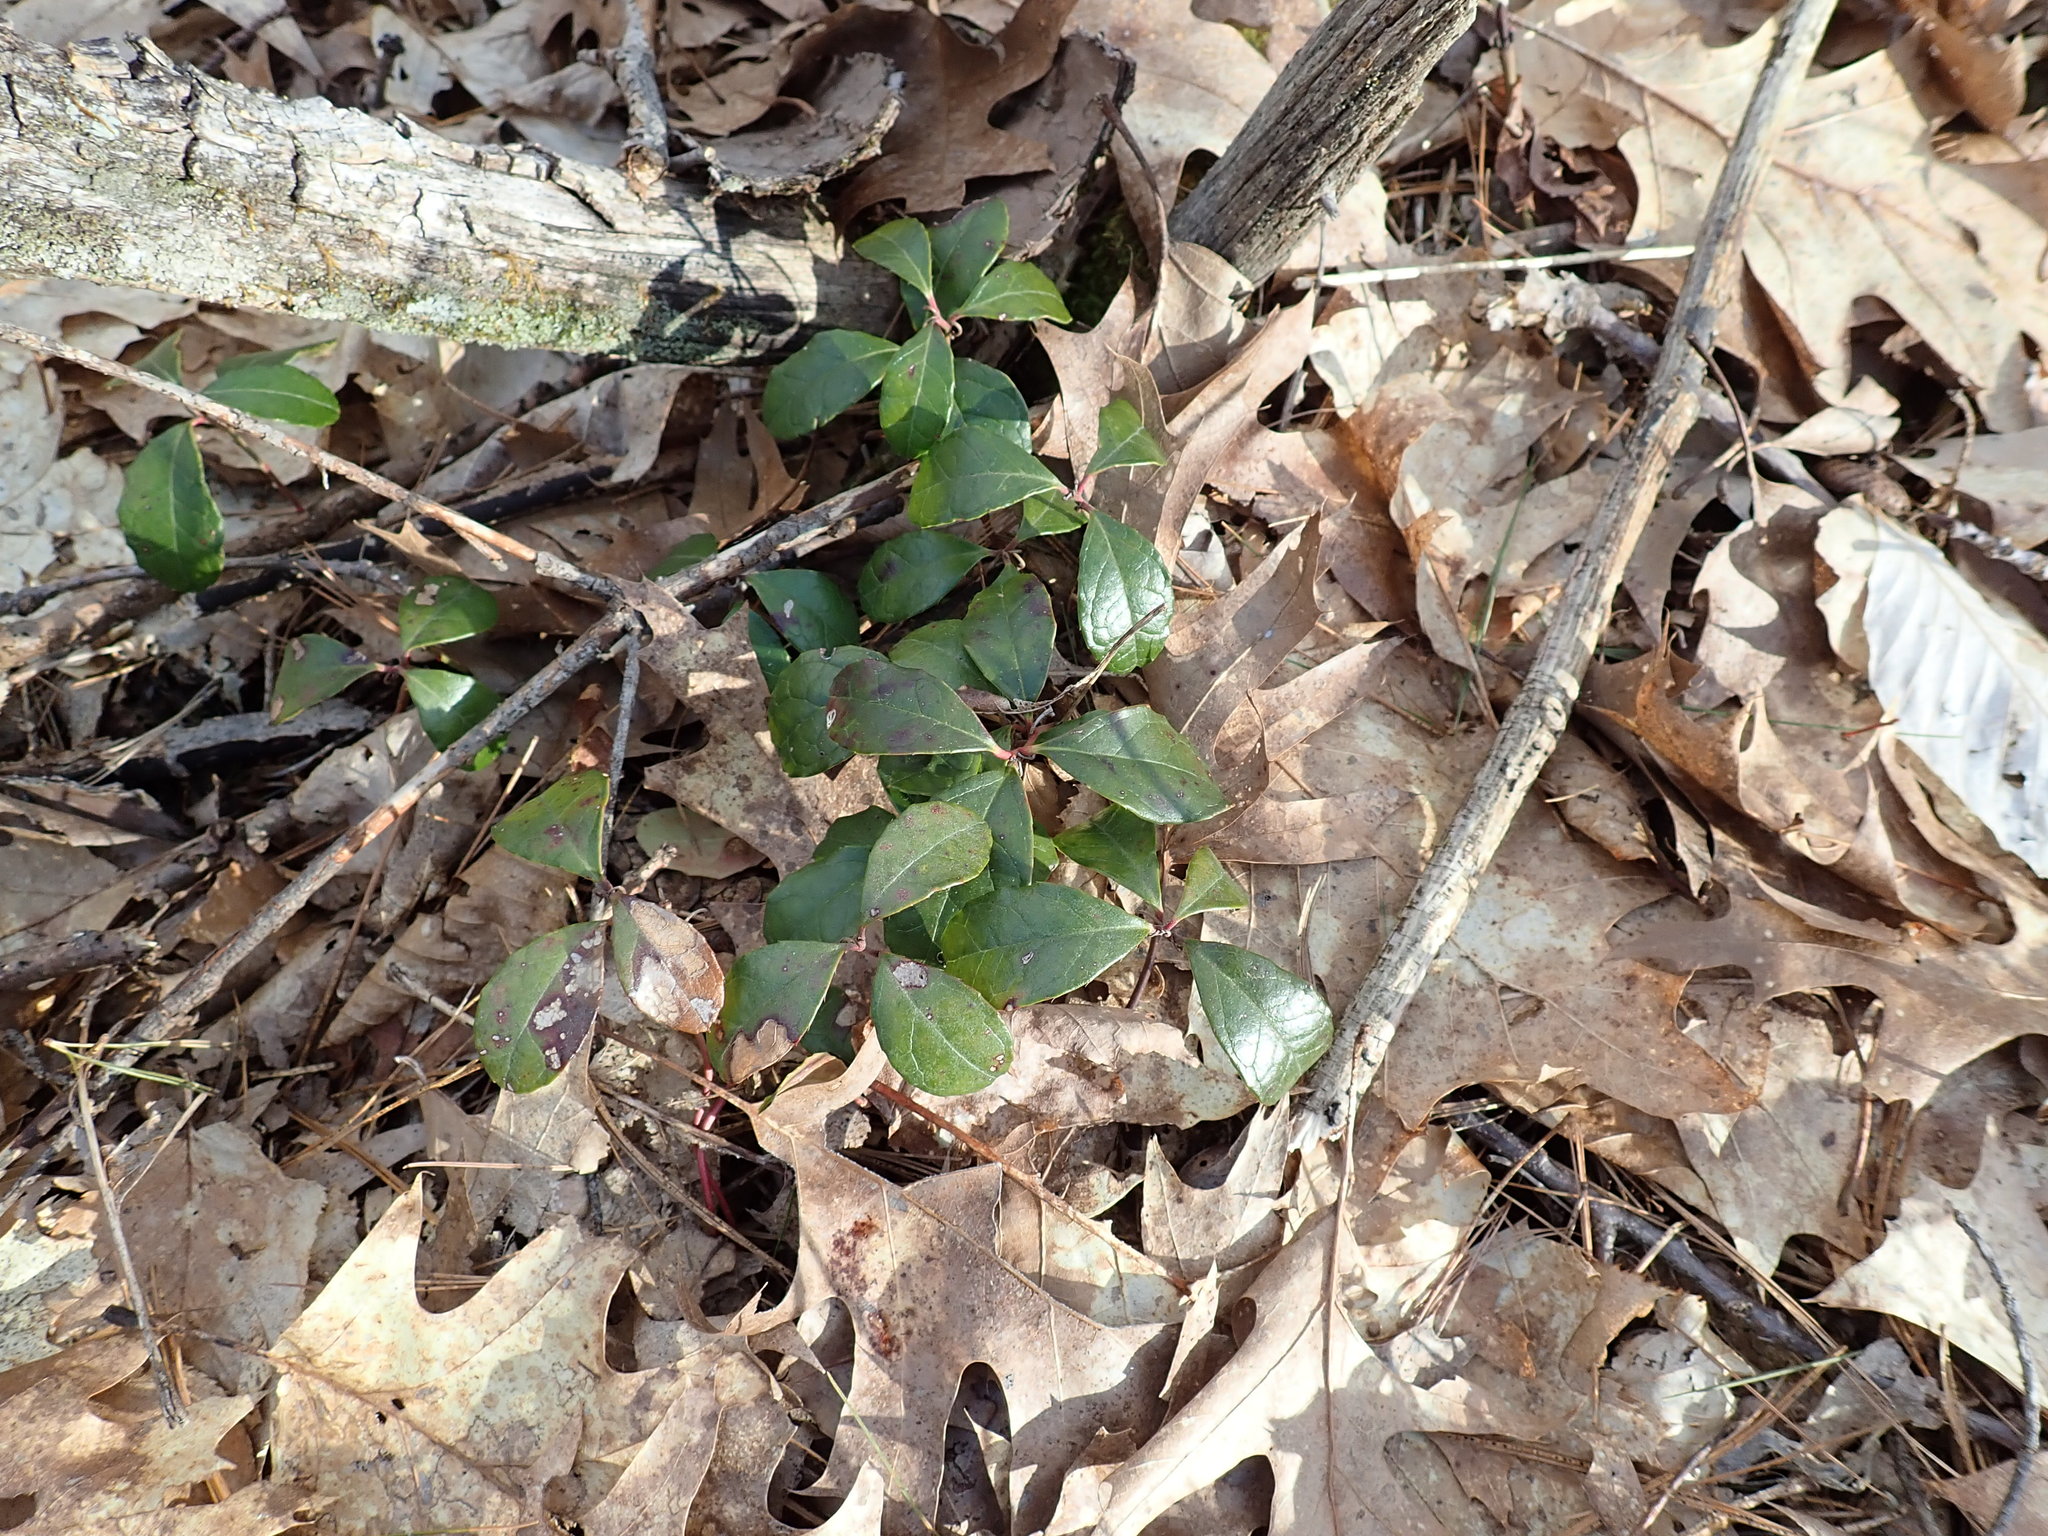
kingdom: Plantae
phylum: Tracheophyta
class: Magnoliopsida
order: Ericales
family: Ericaceae
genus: Gaultheria
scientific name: Gaultheria procumbens
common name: Checkerberry
